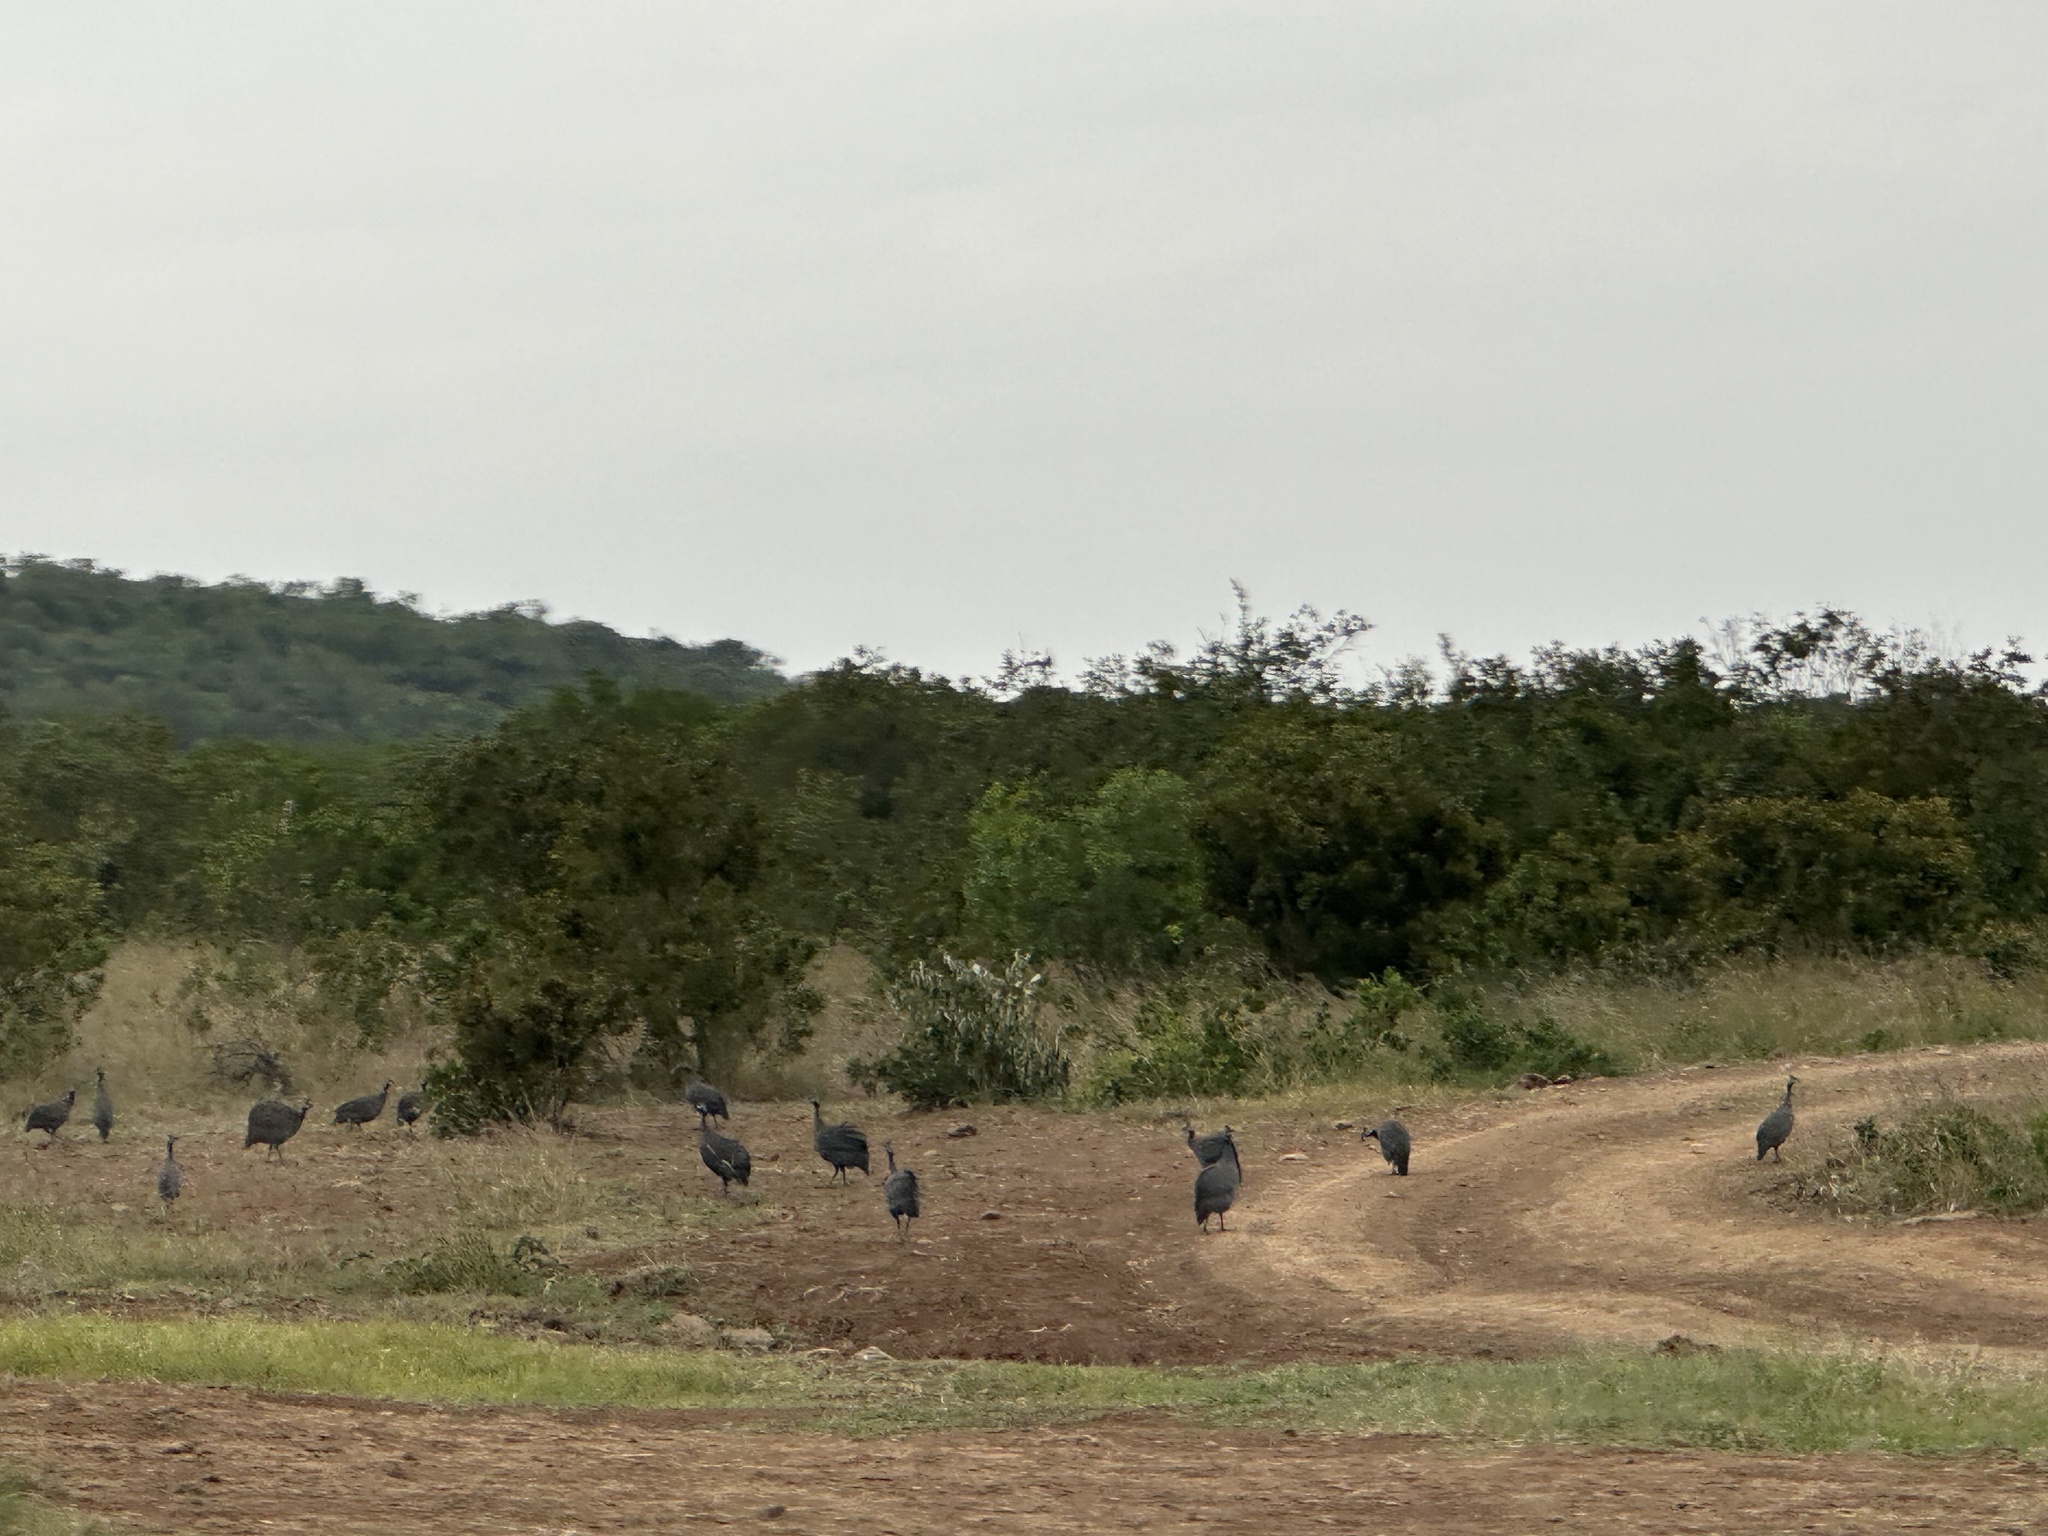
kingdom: Animalia
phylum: Chordata
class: Aves
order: Galliformes
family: Numididae
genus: Numida
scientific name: Numida meleagris
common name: Helmeted guineafowl
